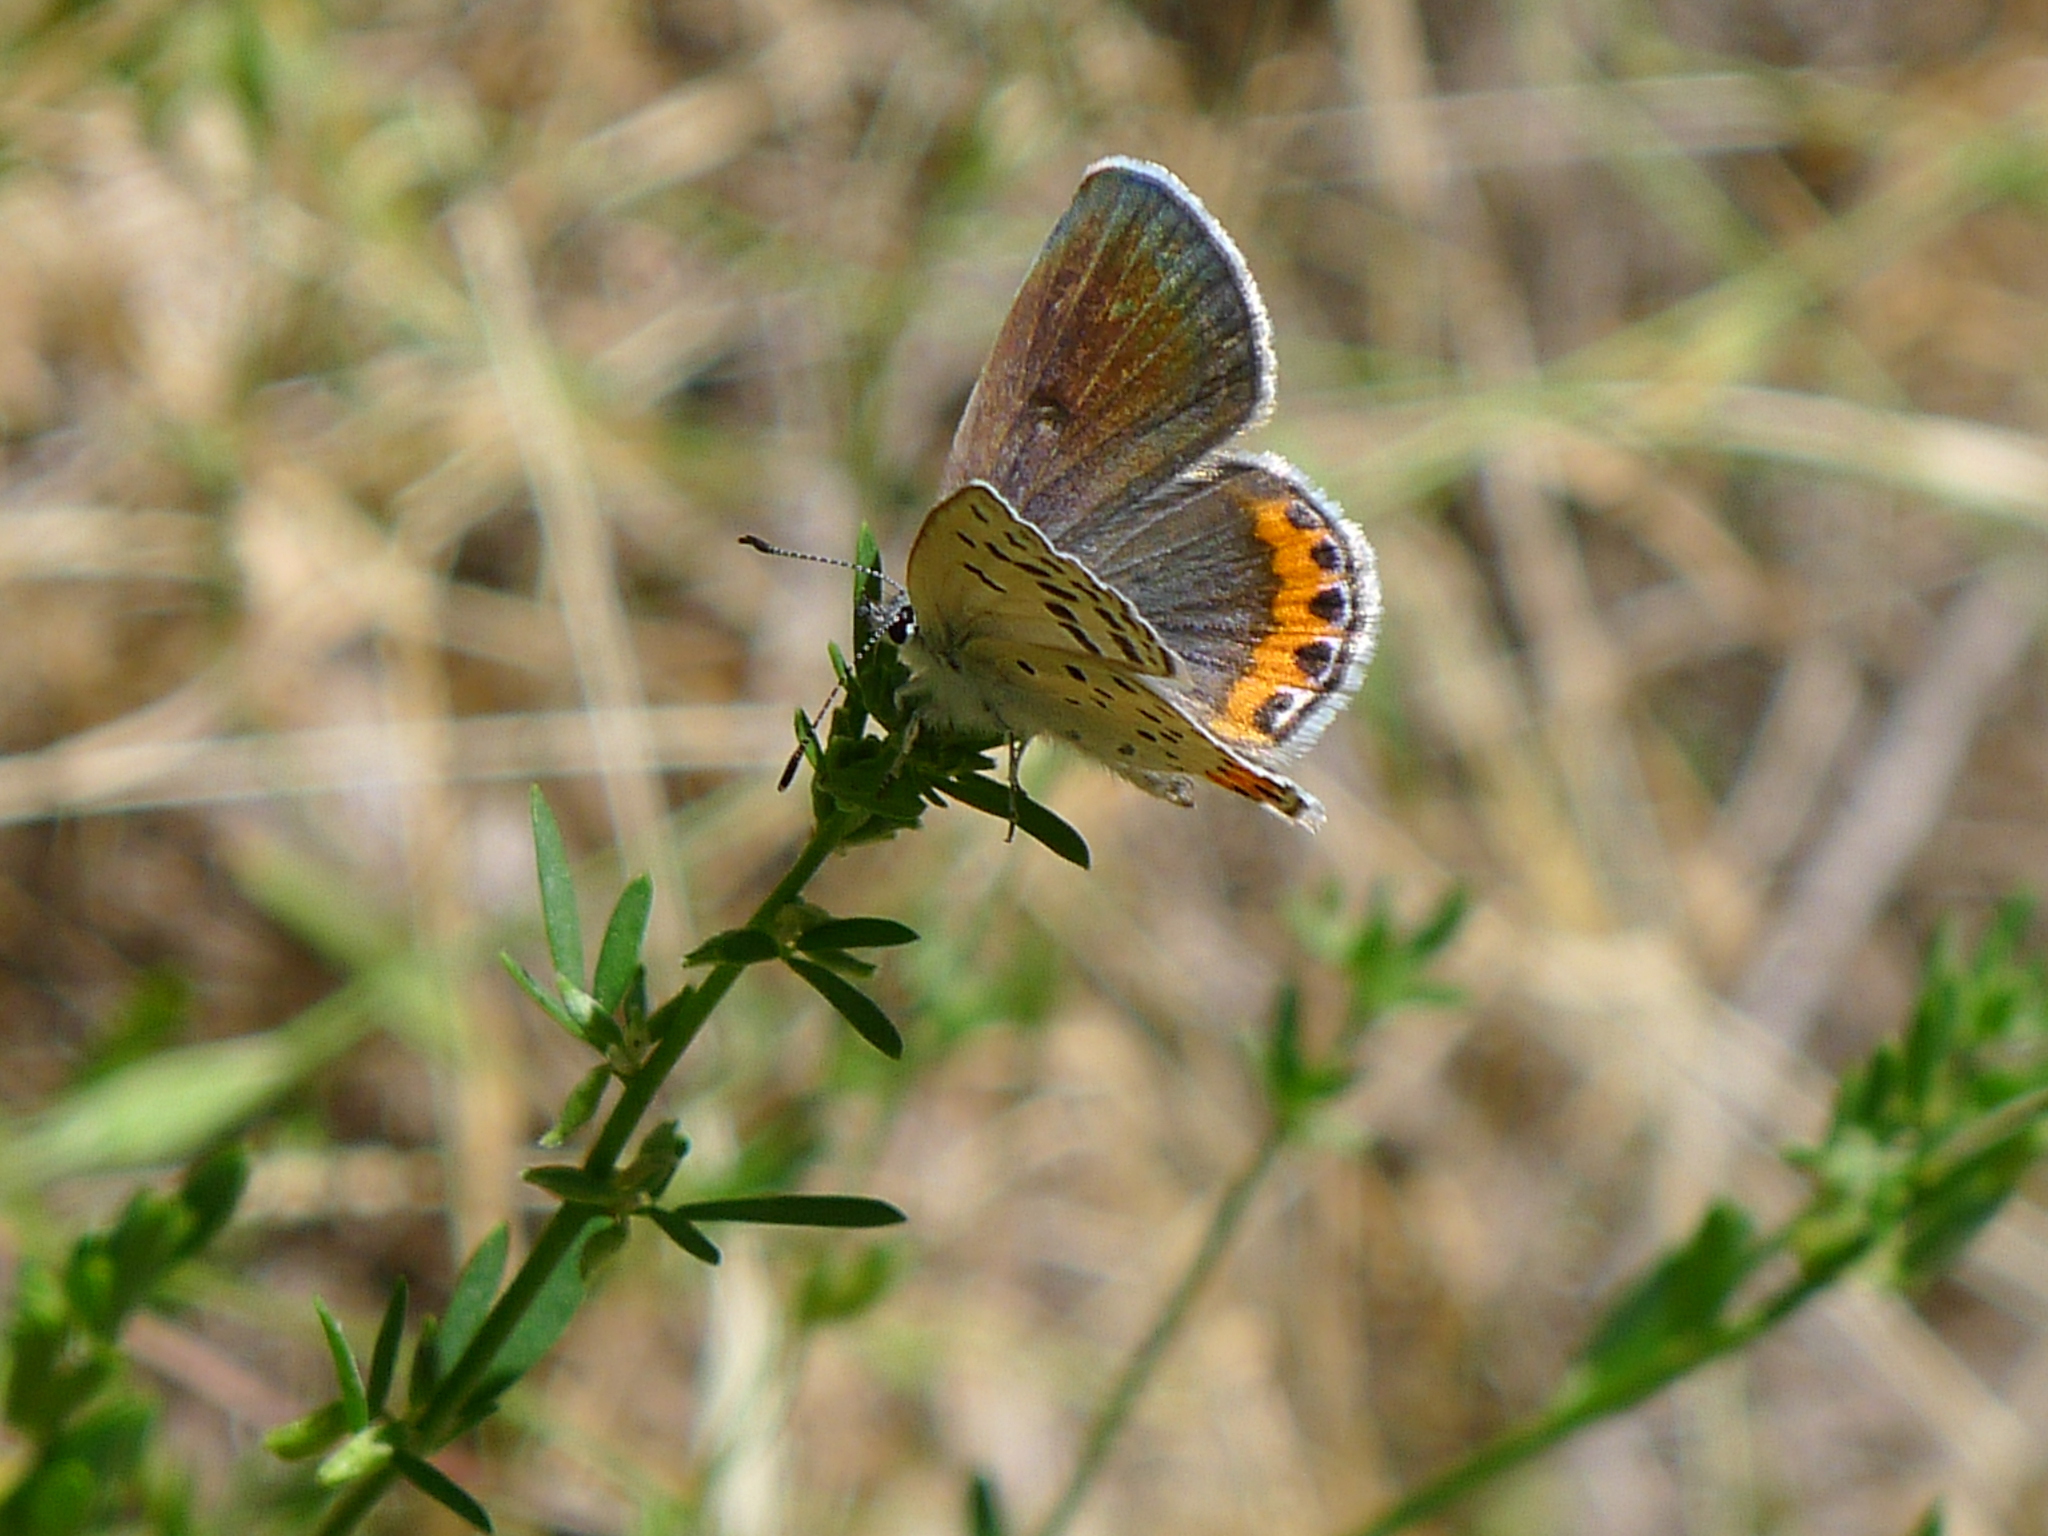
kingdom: Animalia
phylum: Arthropoda
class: Insecta
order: Lepidoptera
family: Lycaenidae
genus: Icaricia
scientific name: Icaricia acmon
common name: Acmon blue
